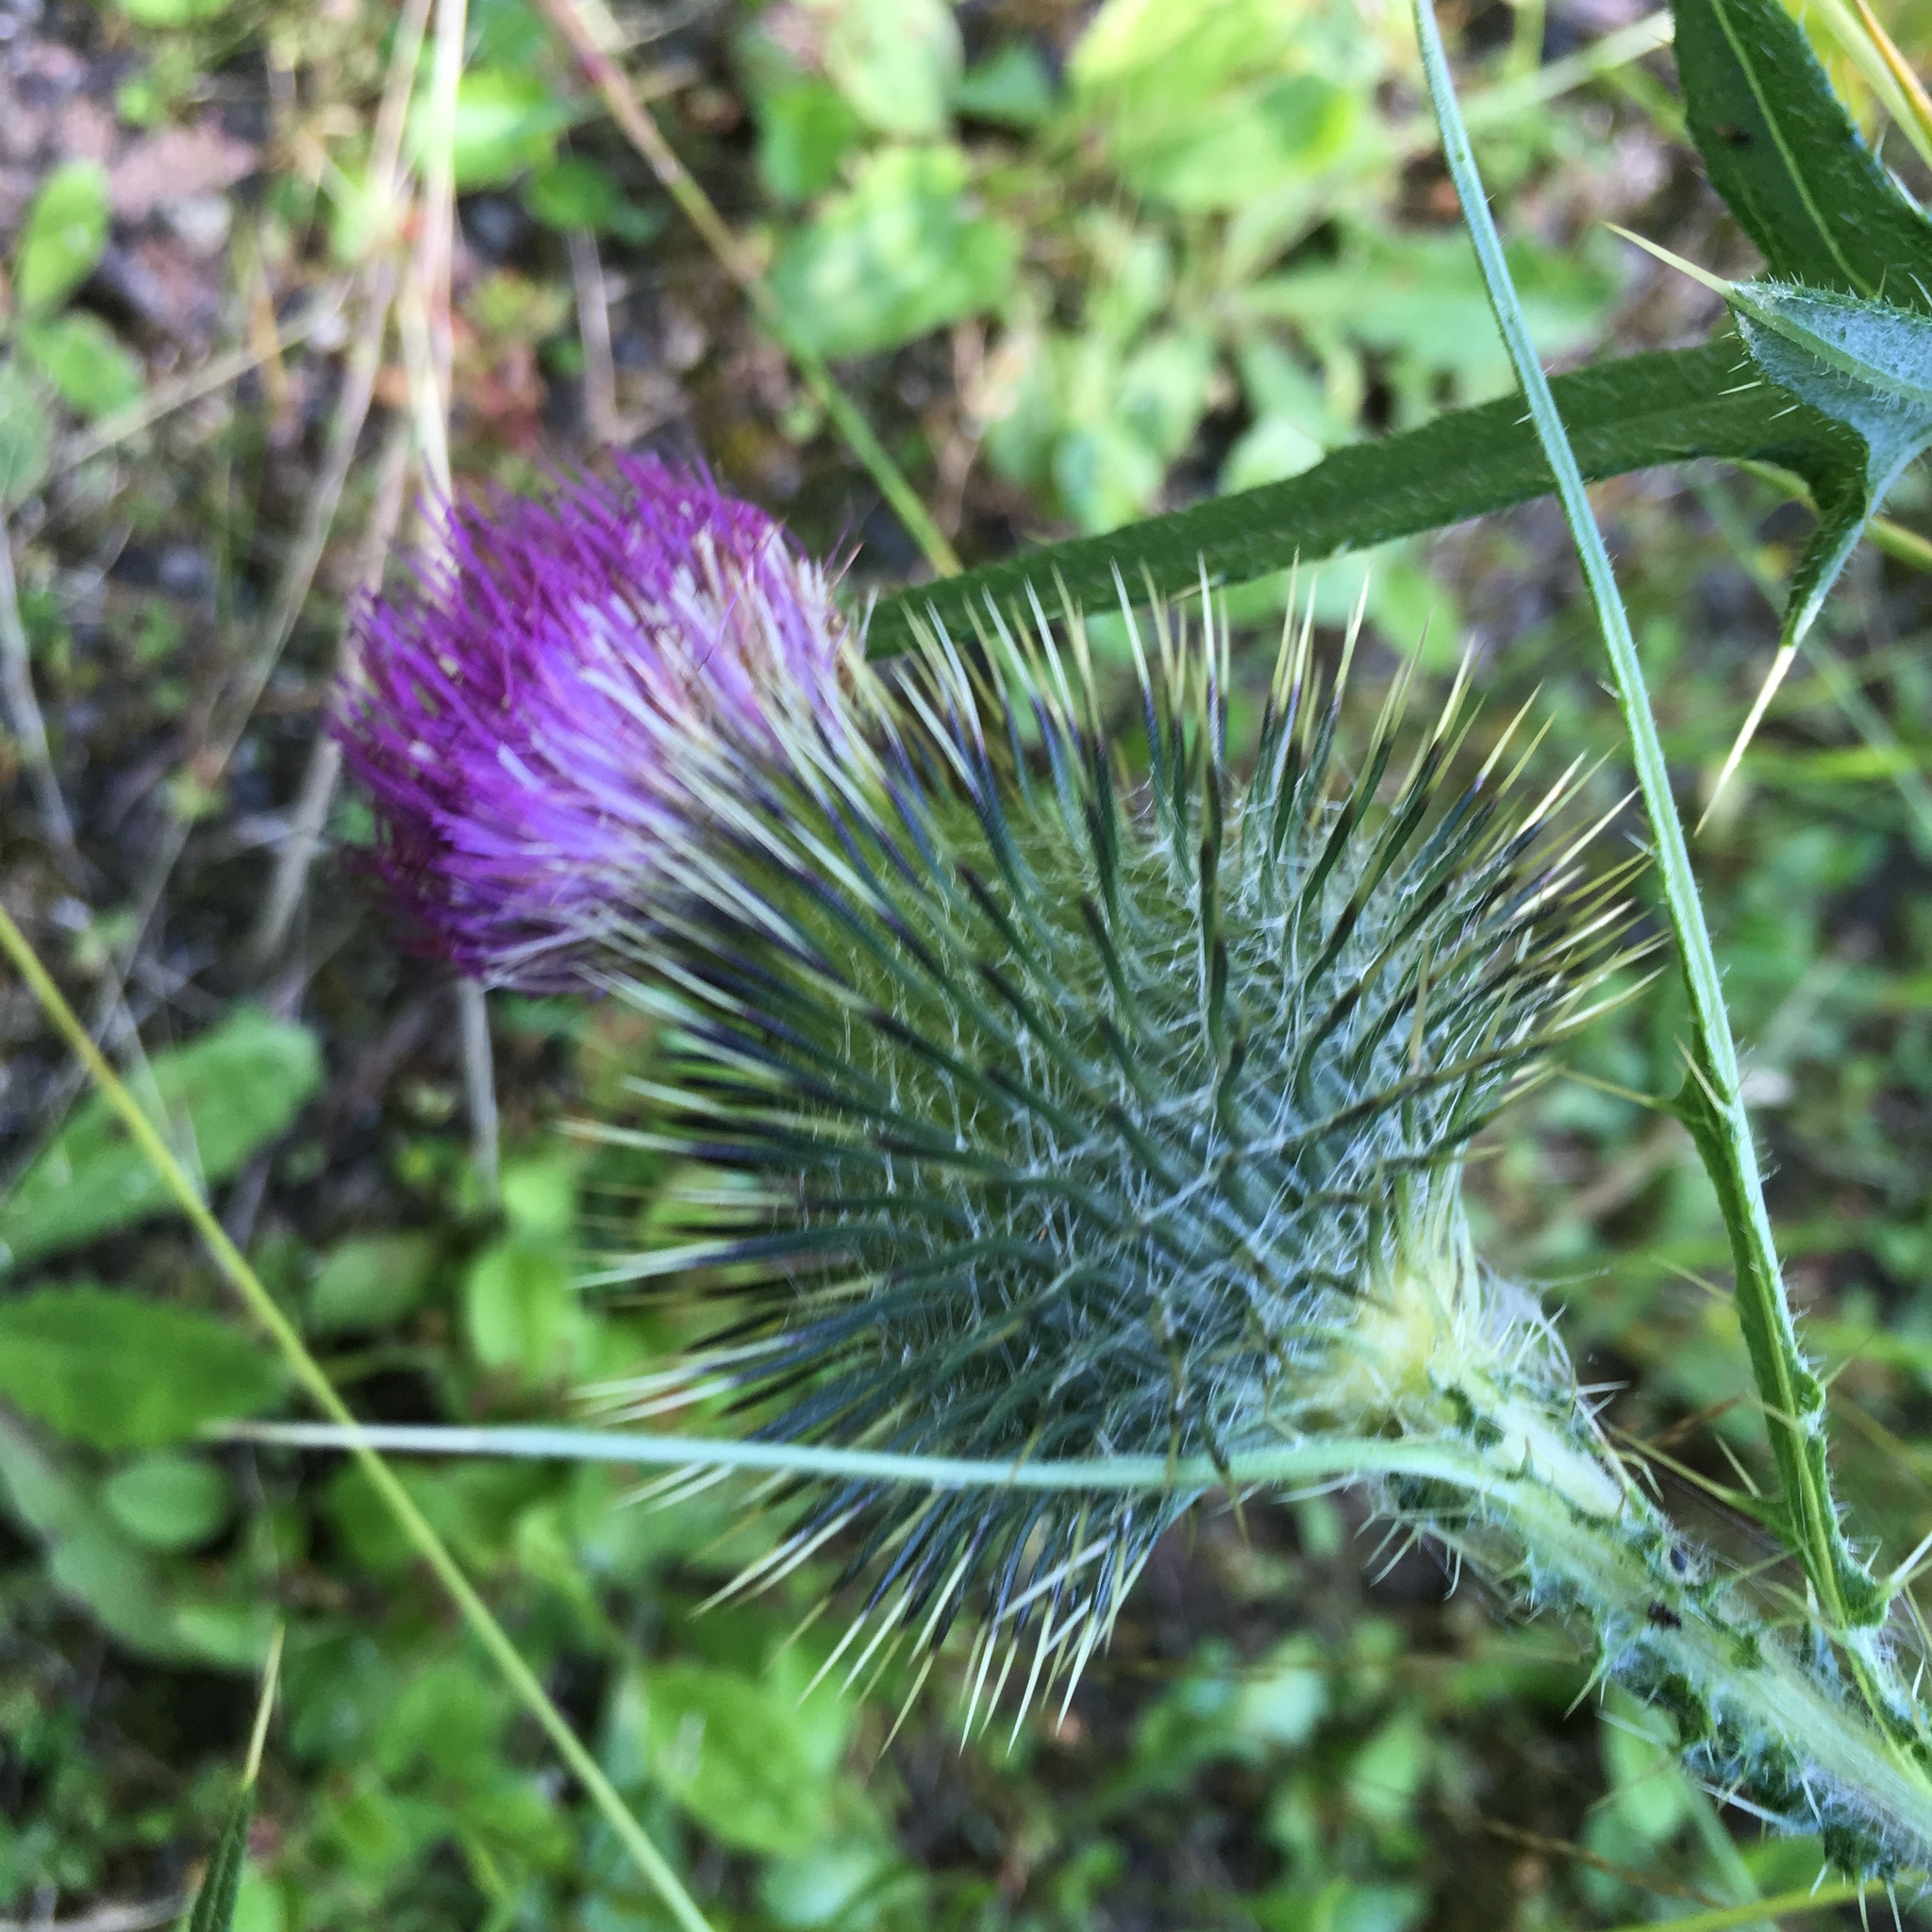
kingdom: Plantae
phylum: Tracheophyta
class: Magnoliopsida
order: Asterales
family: Asteraceae
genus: Cirsium
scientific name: Cirsium vulgare
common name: Bull thistle
